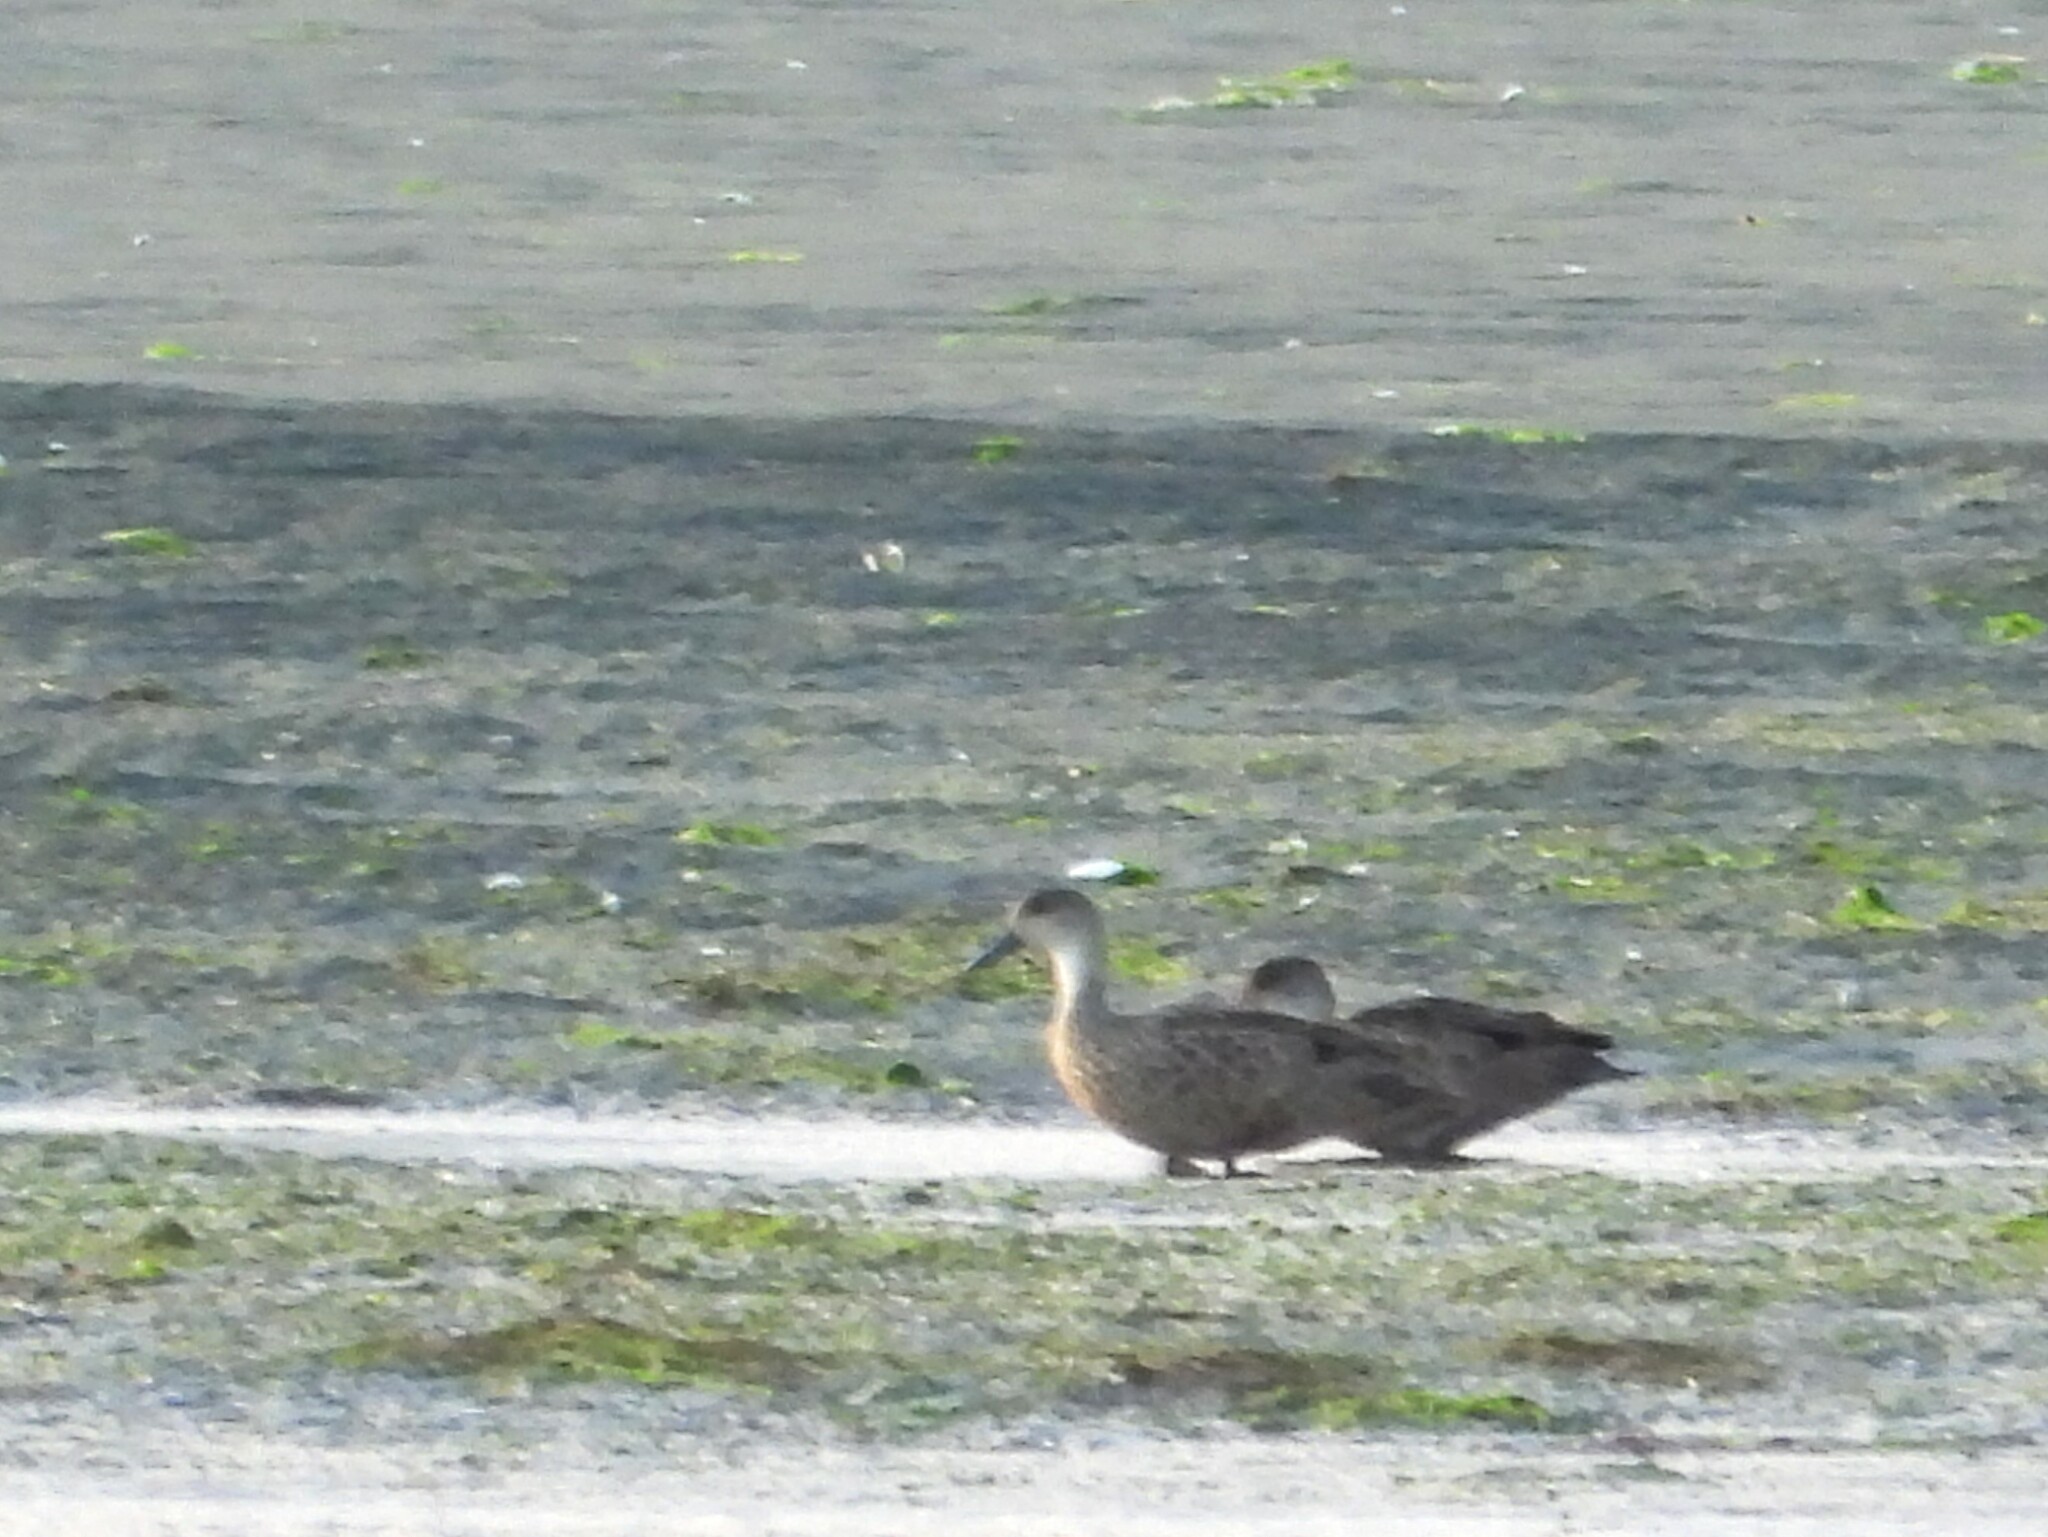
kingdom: Animalia
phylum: Chordata
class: Aves
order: Anseriformes
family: Anatidae
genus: Anas
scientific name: Anas gracilis
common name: Grey teal
